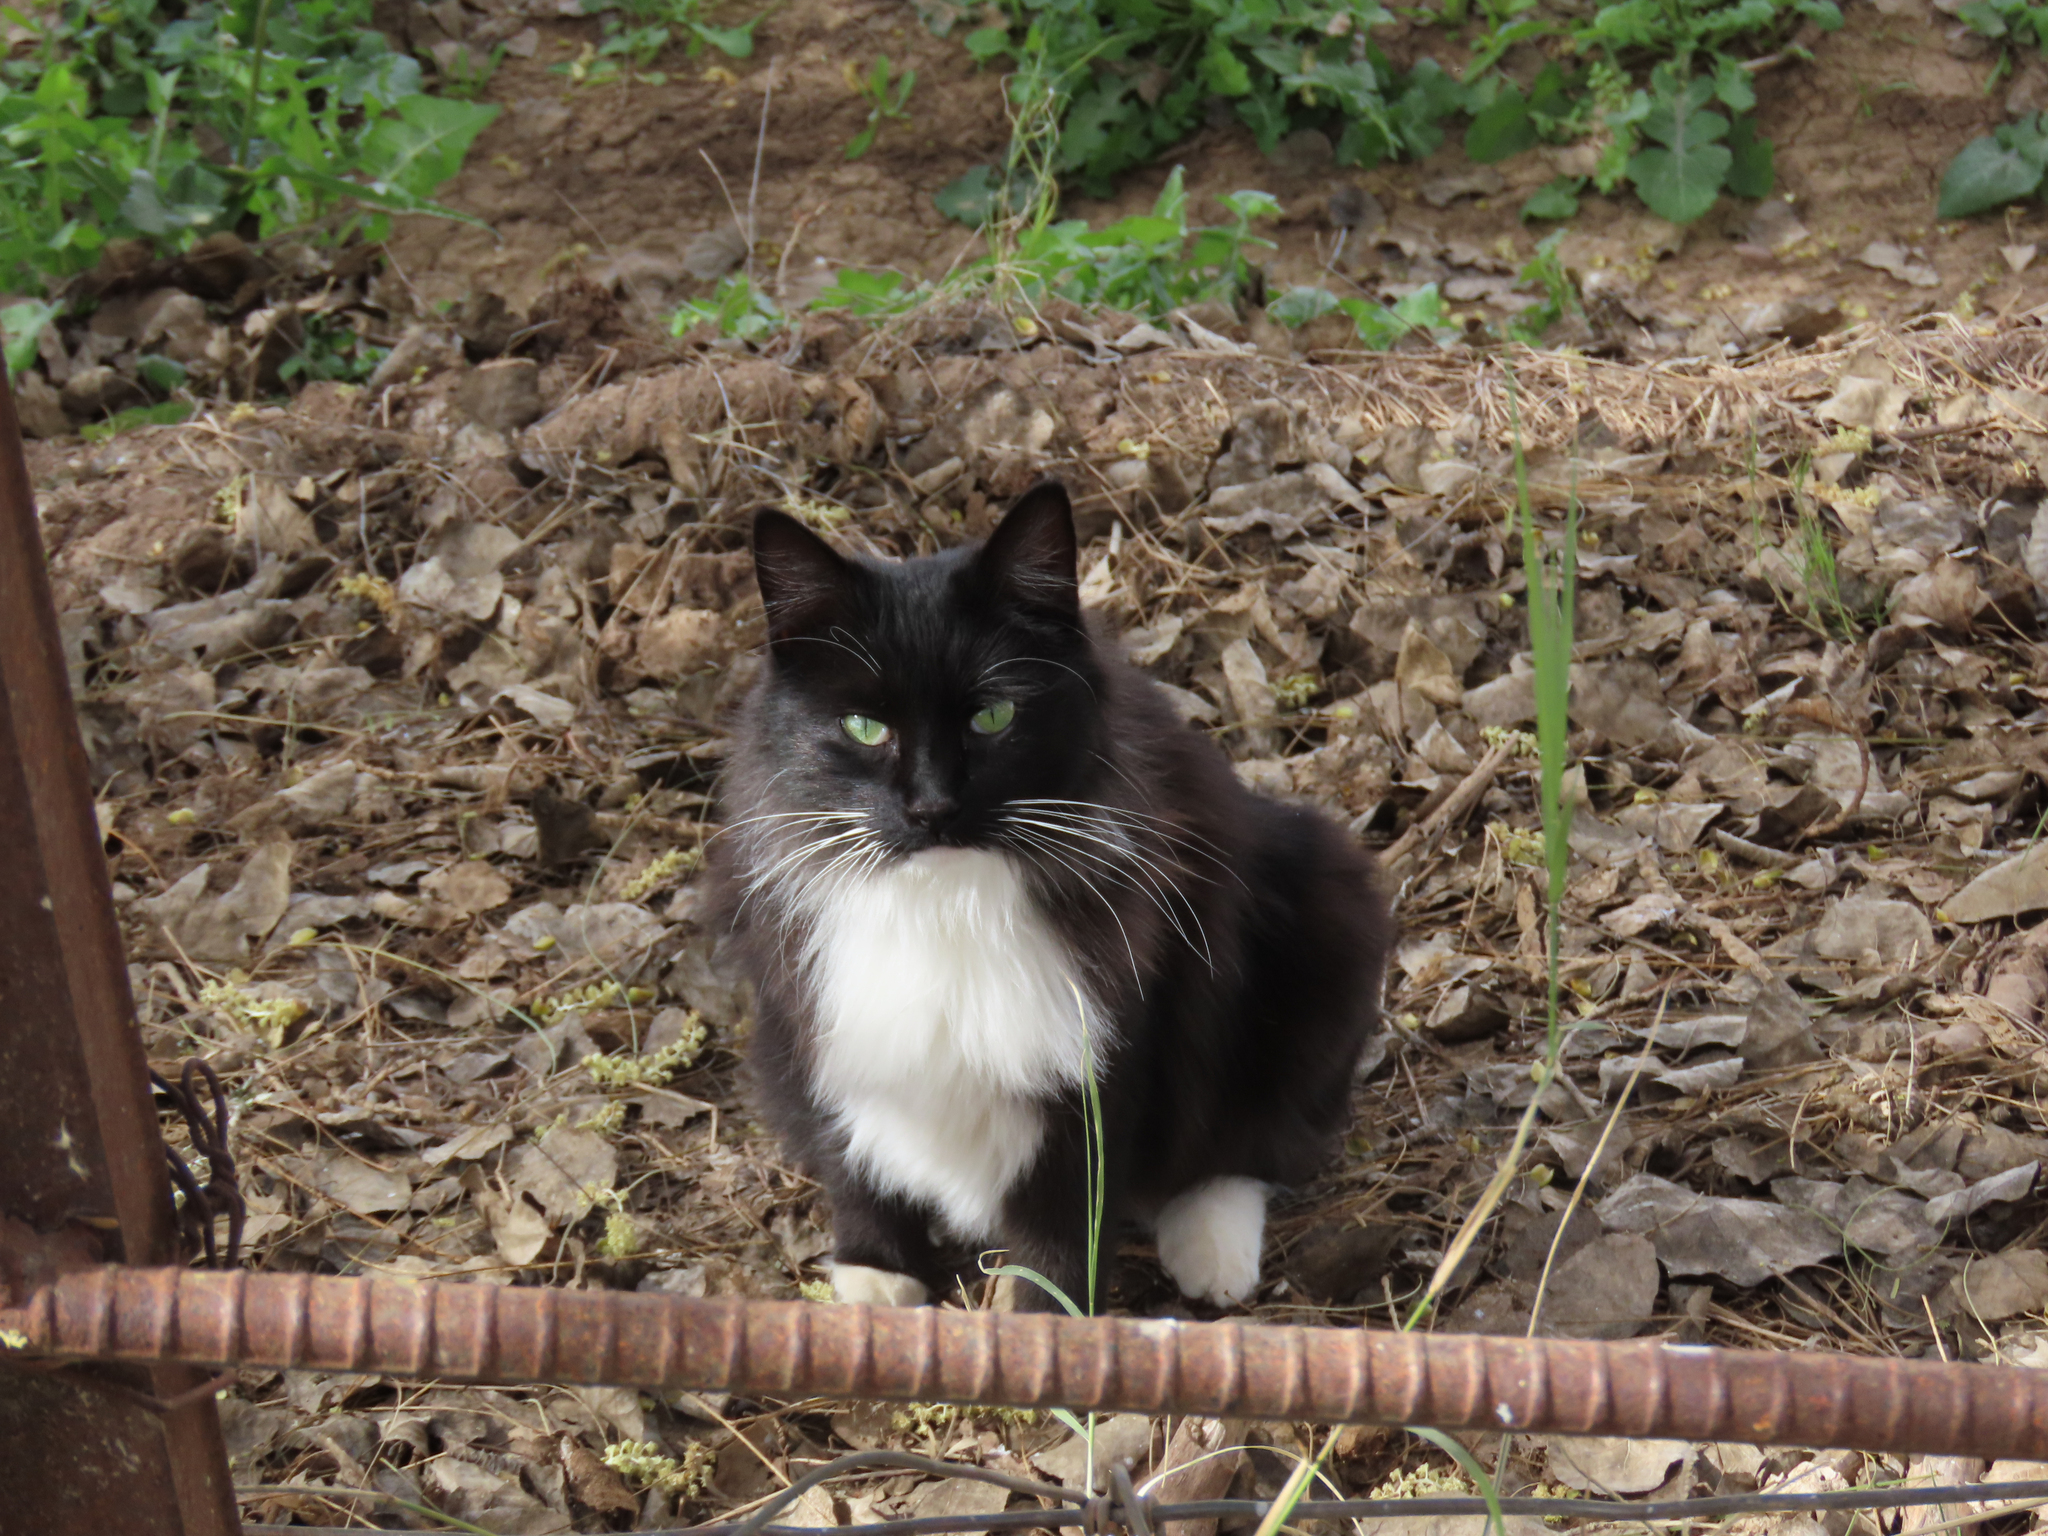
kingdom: Animalia
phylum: Chordata
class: Mammalia
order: Carnivora
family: Felidae
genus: Felis
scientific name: Felis catus
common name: Domestic cat
